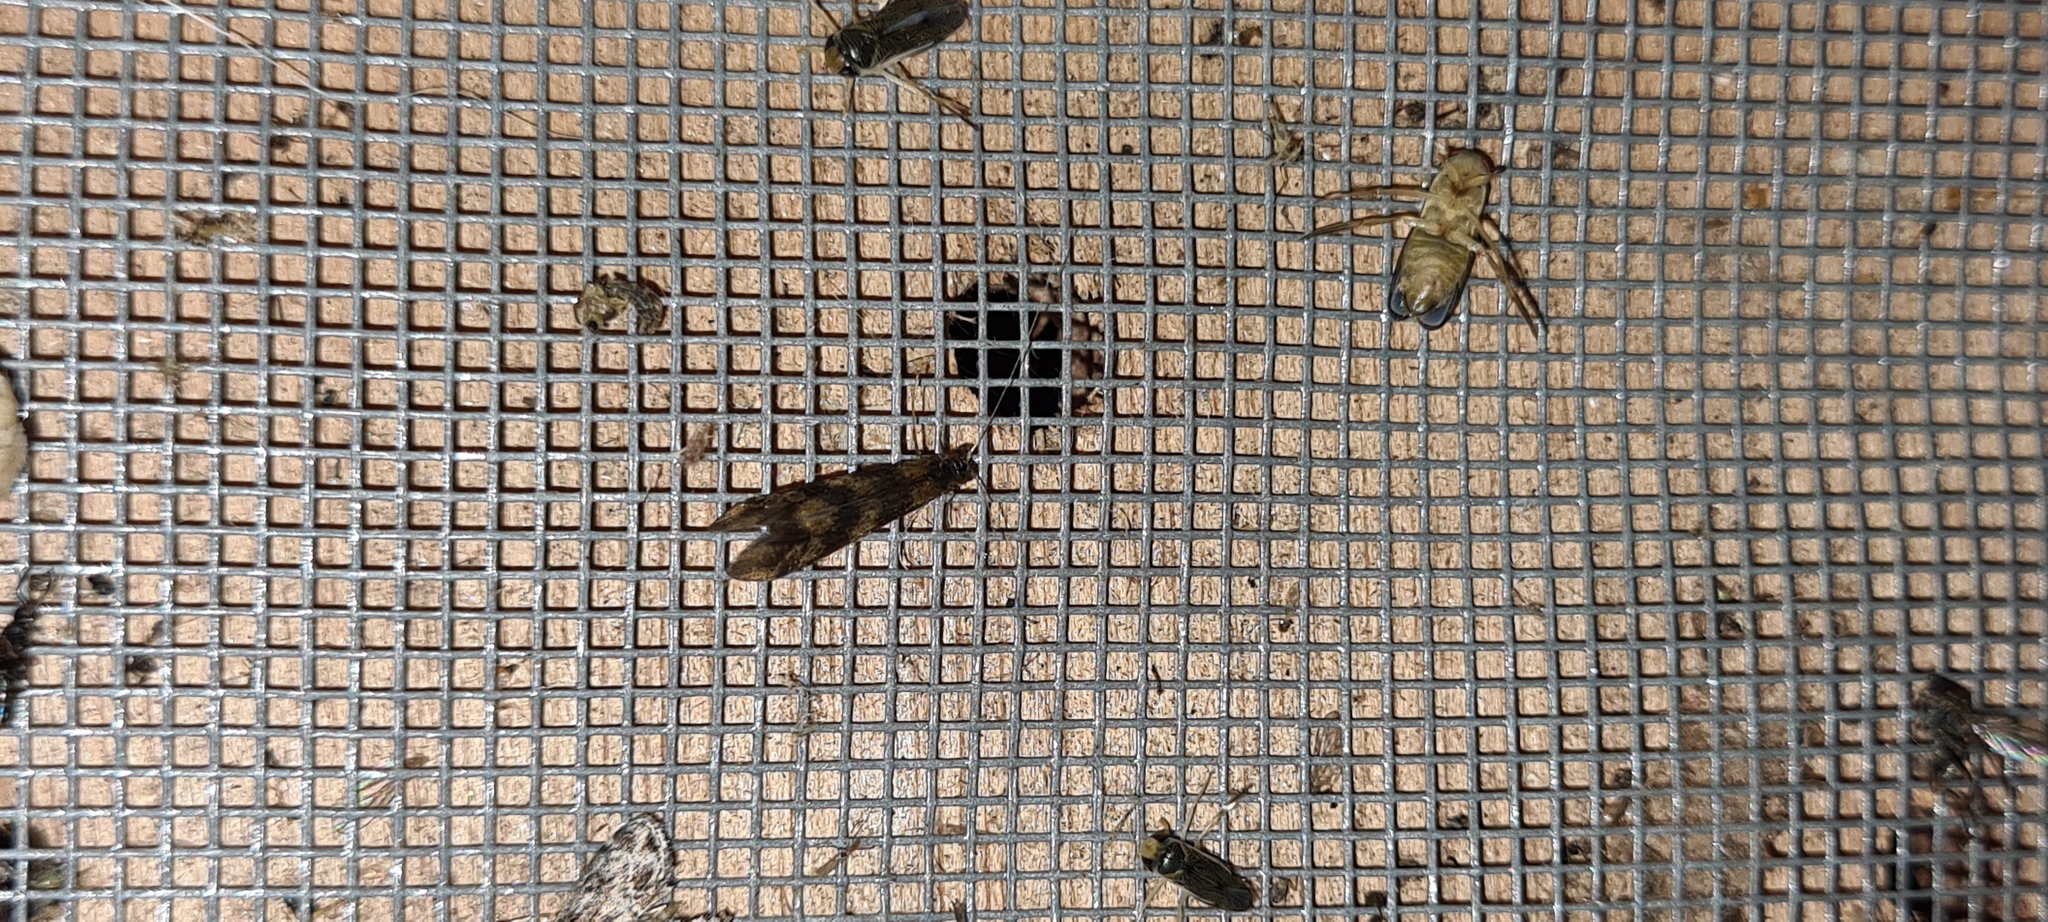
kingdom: Animalia
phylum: Arthropoda
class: Insecta
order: Trichoptera
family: Leptoceridae
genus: Mystacides
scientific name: Mystacides longicornis
